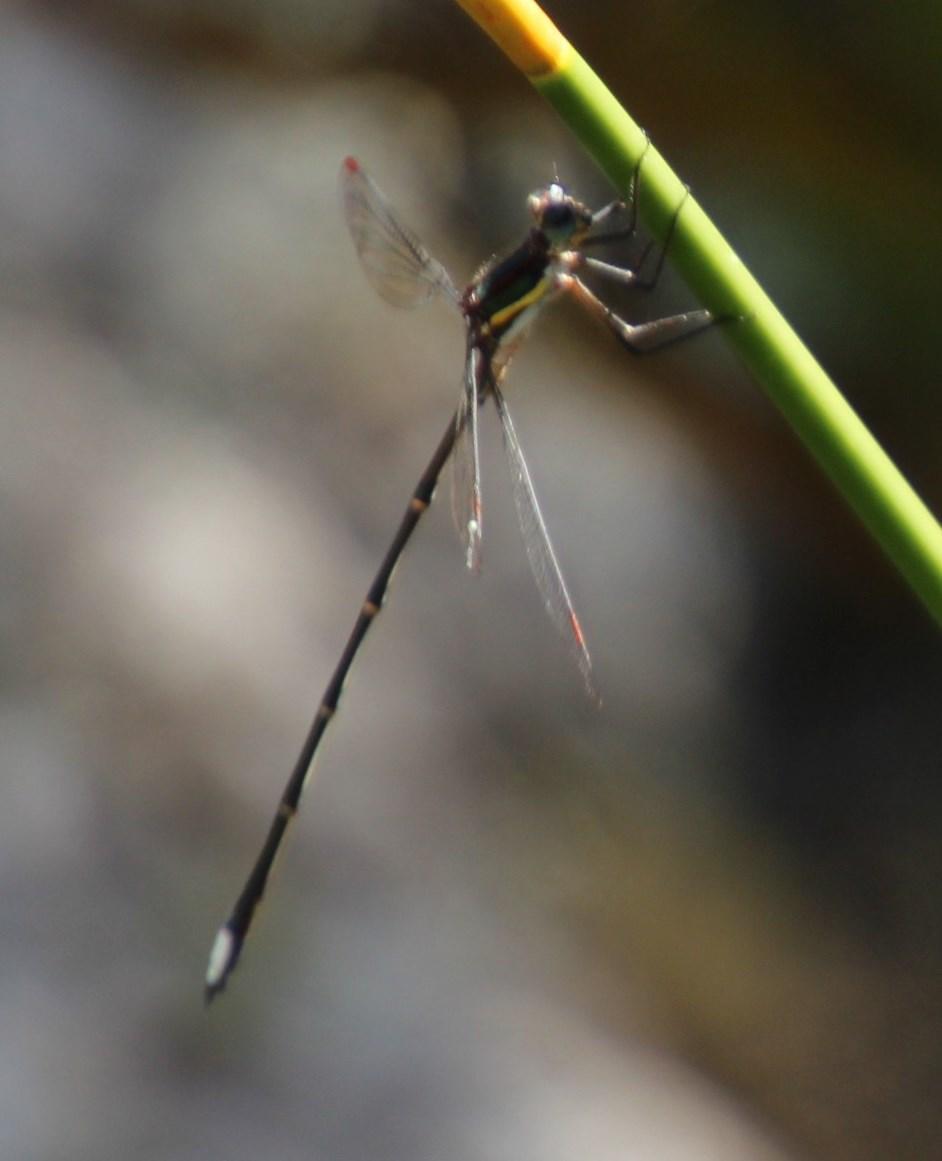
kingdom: Animalia
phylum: Arthropoda
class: Insecta
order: Odonata
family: Synlestidae
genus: Chlorolestes
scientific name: Chlorolestes conspicuus
